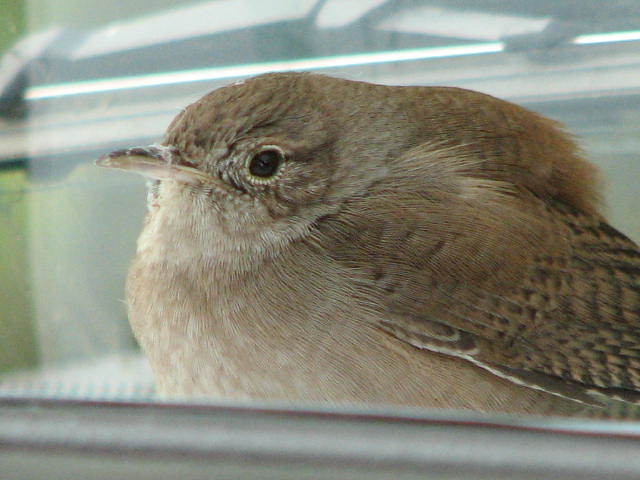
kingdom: Animalia
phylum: Chordata
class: Aves
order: Passeriformes
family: Troglodytidae
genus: Troglodytes
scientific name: Troglodytes aedon
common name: House wren
